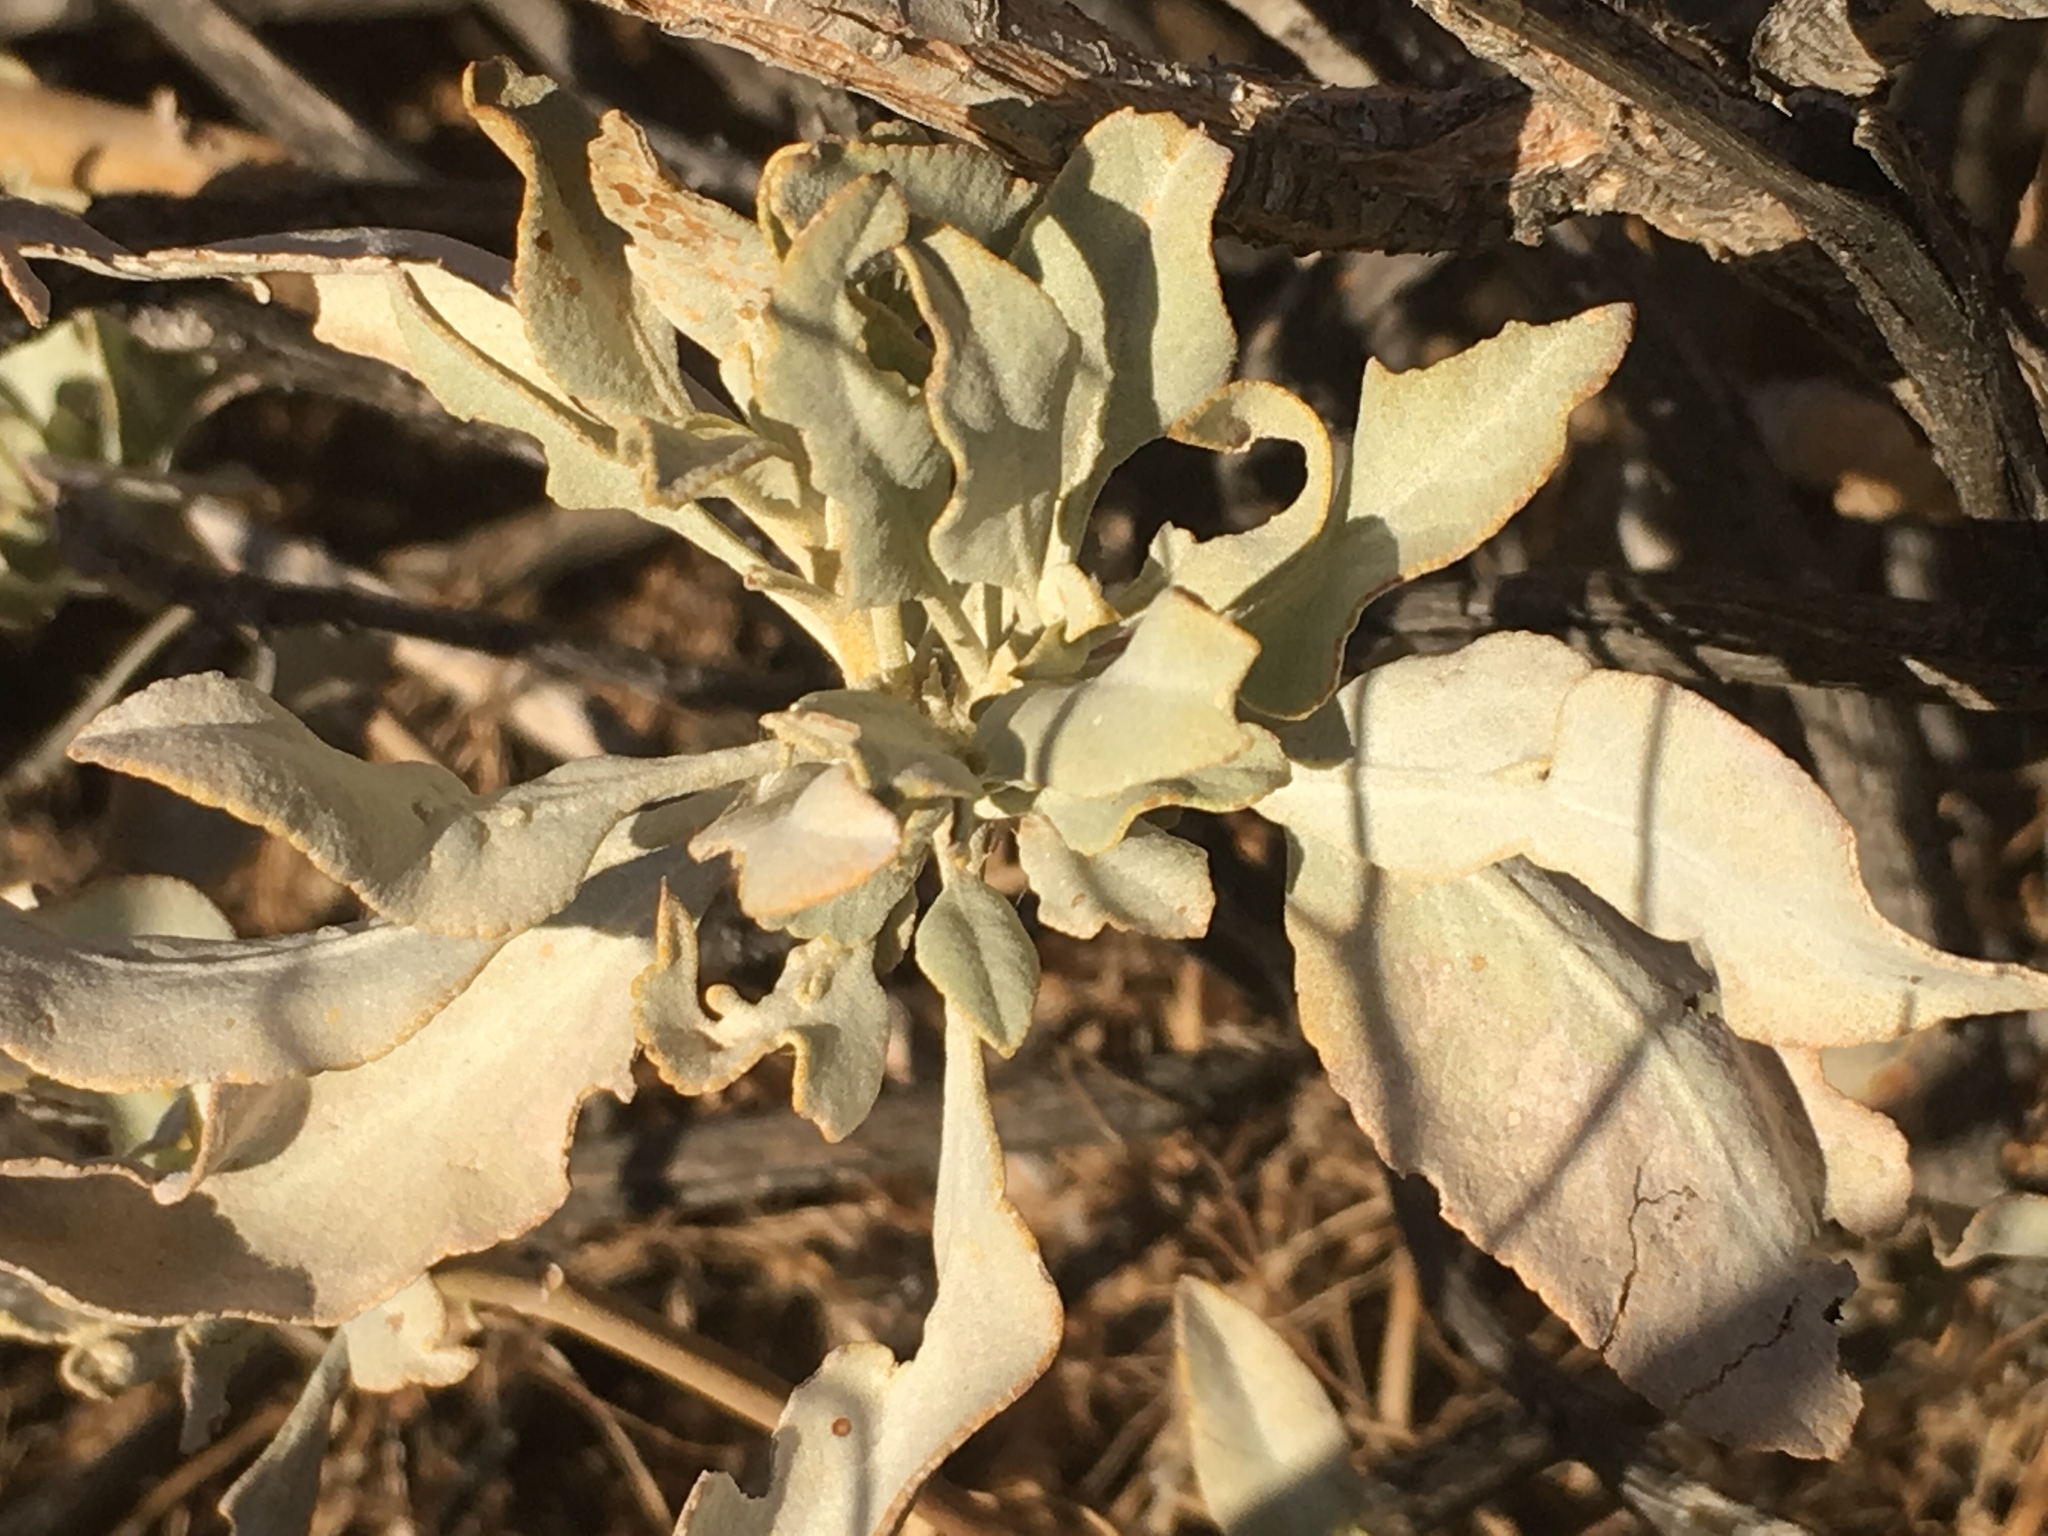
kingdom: Plantae
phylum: Tracheophyta
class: Magnoliopsida
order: Lamiales
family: Lamiaceae
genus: Salvia
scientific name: Salvia vaseyi
